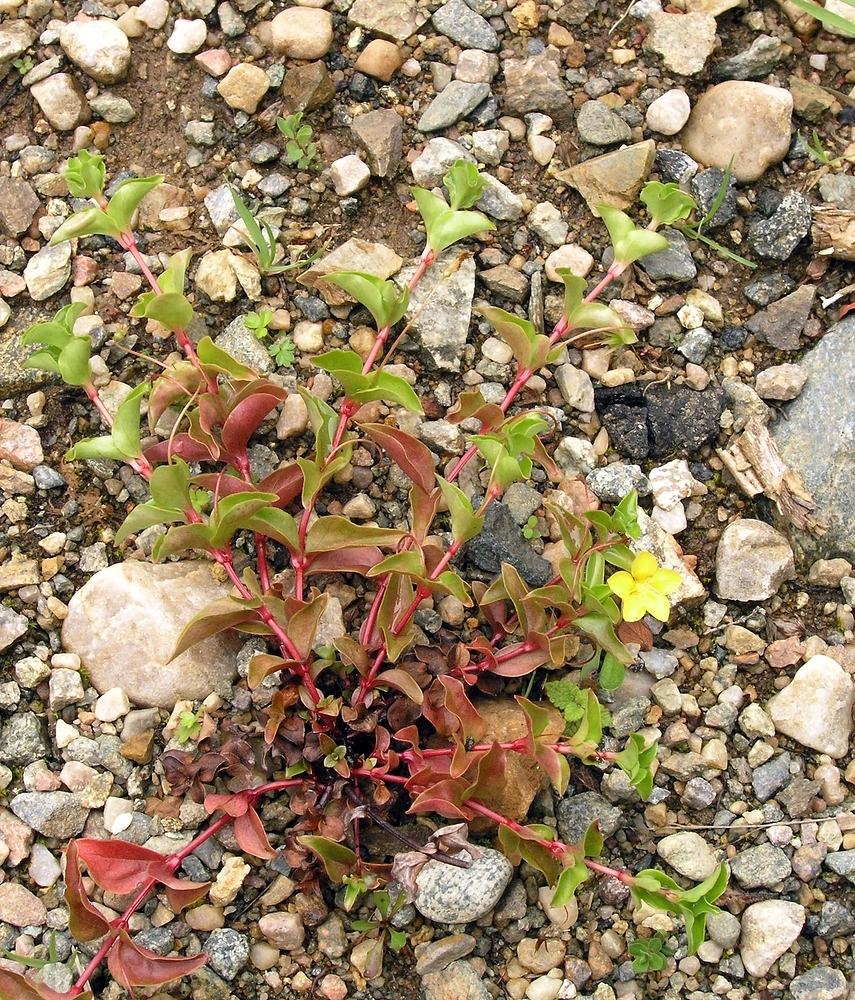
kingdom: Plantae
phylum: Tracheophyta
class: Magnoliopsida
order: Ericales
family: Primulaceae
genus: Lysimachia
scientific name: Lysimachia nemorum
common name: Yellow pimpernel
